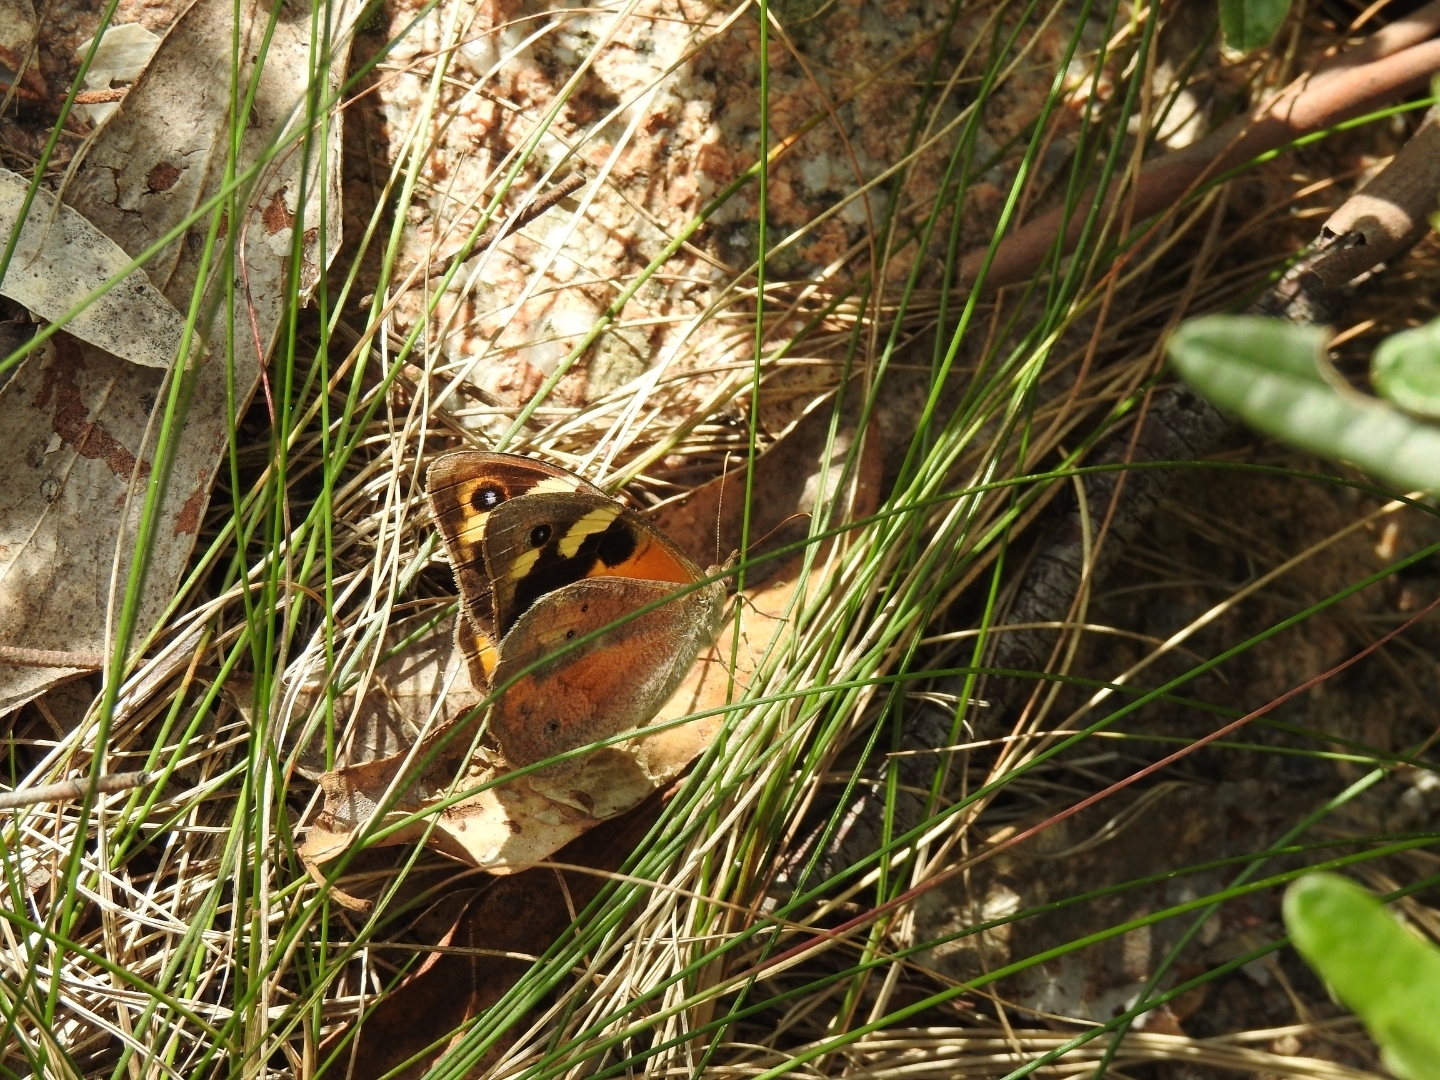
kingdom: Animalia
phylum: Arthropoda
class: Insecta
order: Lepidoptera
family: Nymphalidae
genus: Heteronympha
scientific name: Heteronympha merope
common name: Common brown
